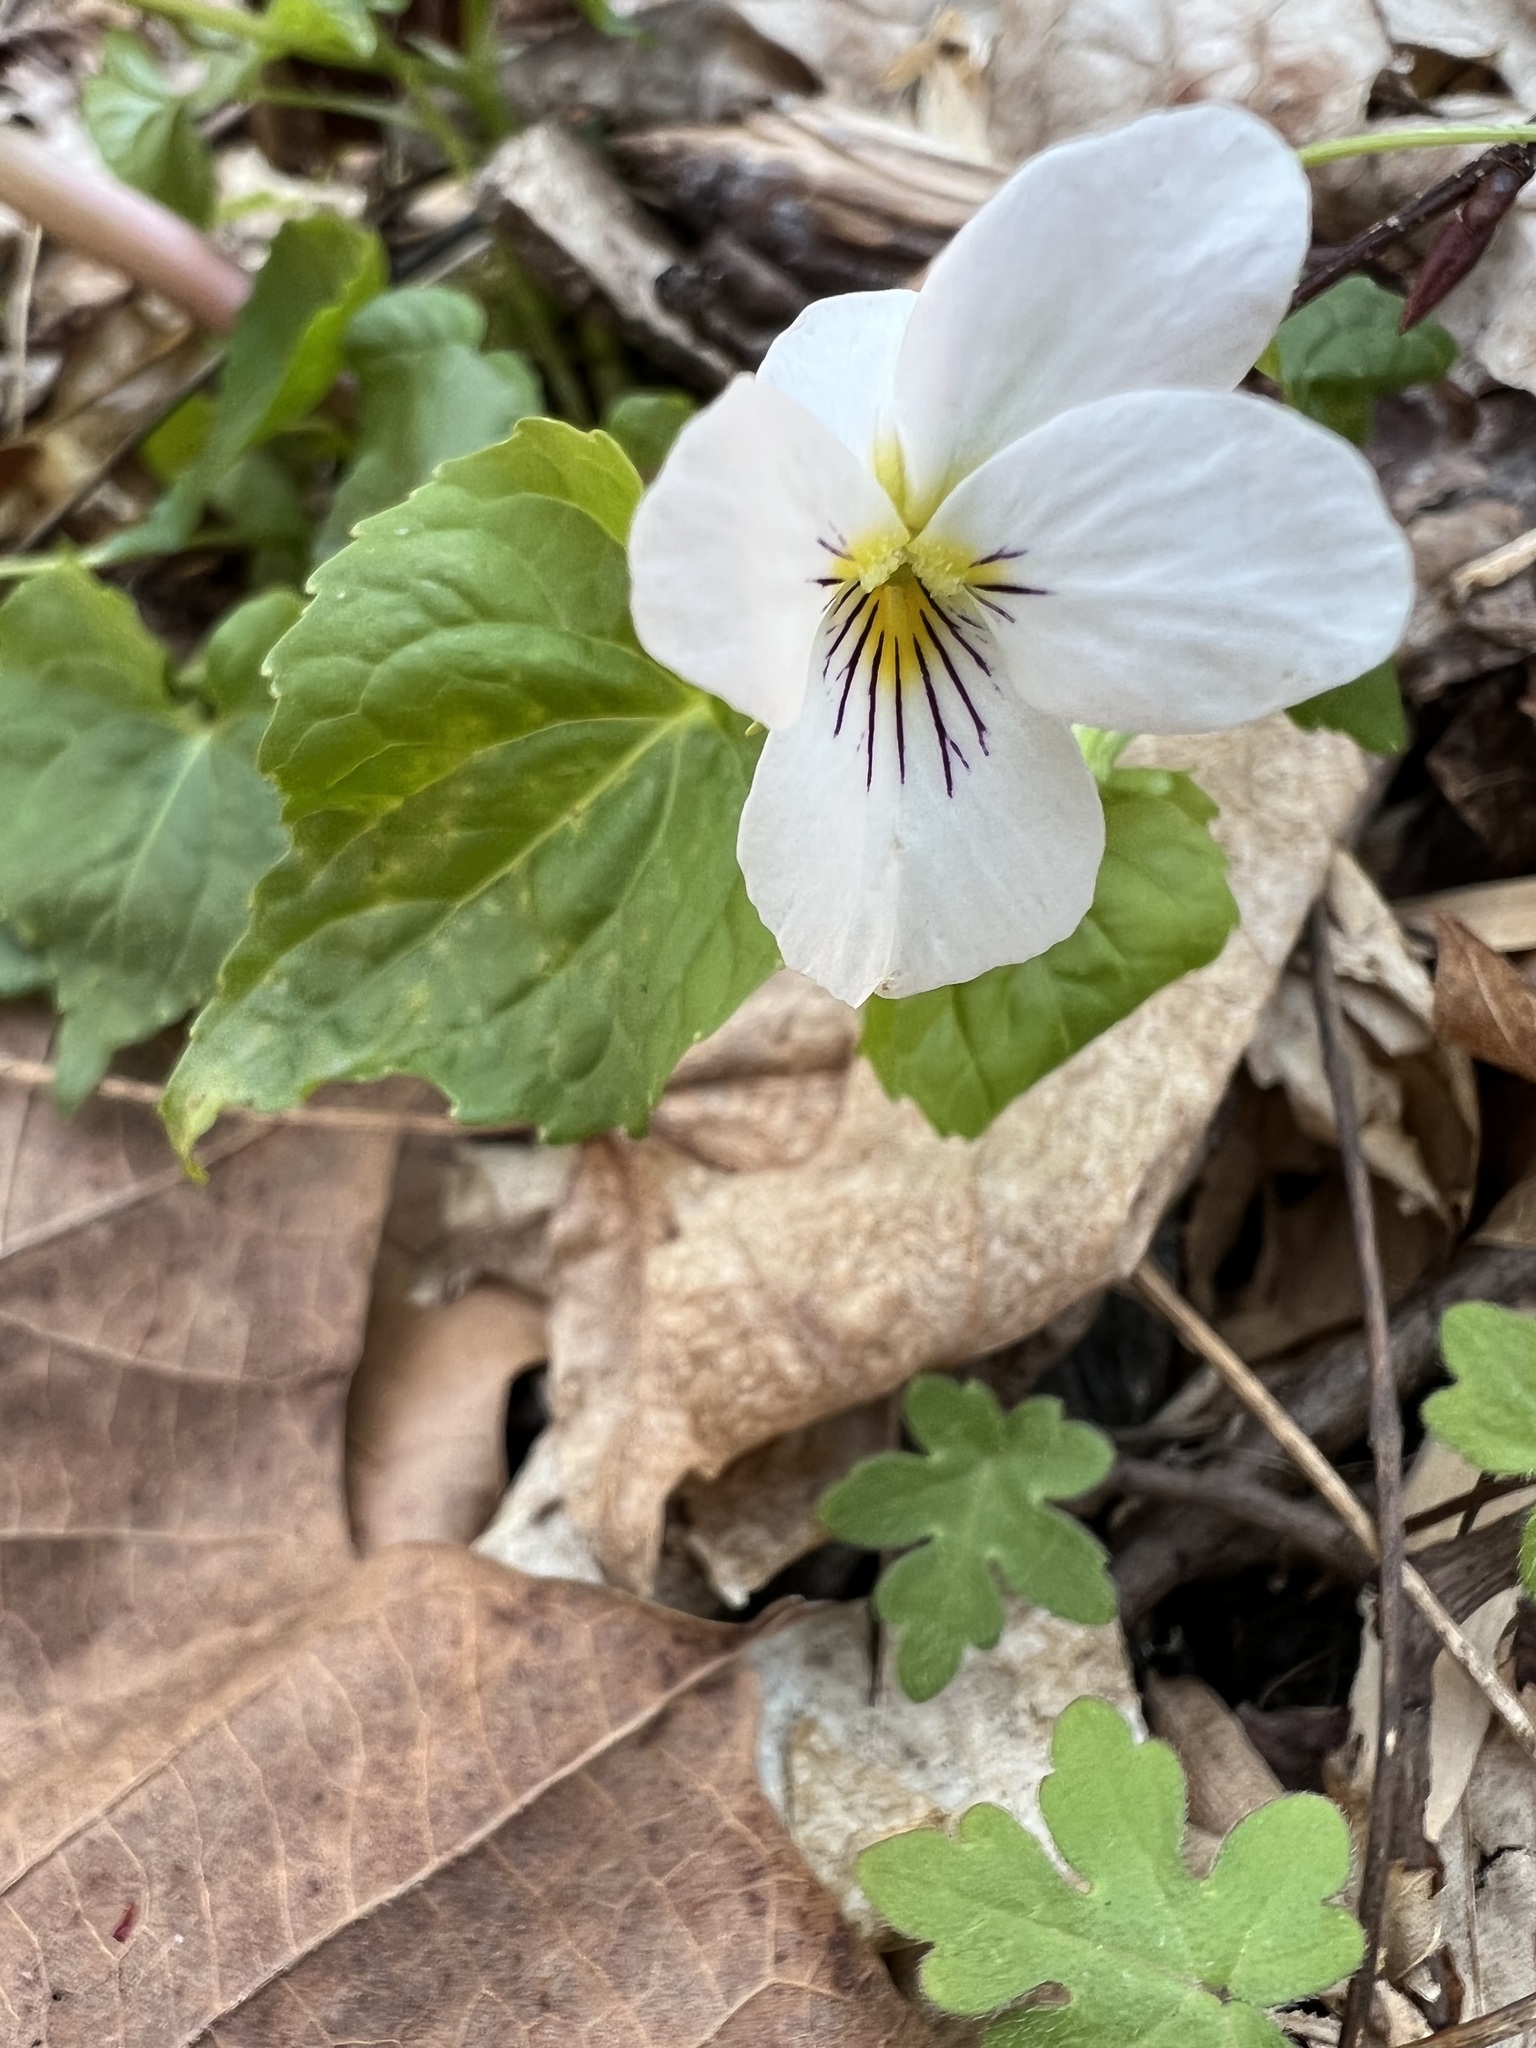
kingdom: Plantae
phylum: Tracheophyta
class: Magnoliopsida
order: Malpighiales
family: Violaceae
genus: Viola
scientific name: Viola canadensis
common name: Canada violet
